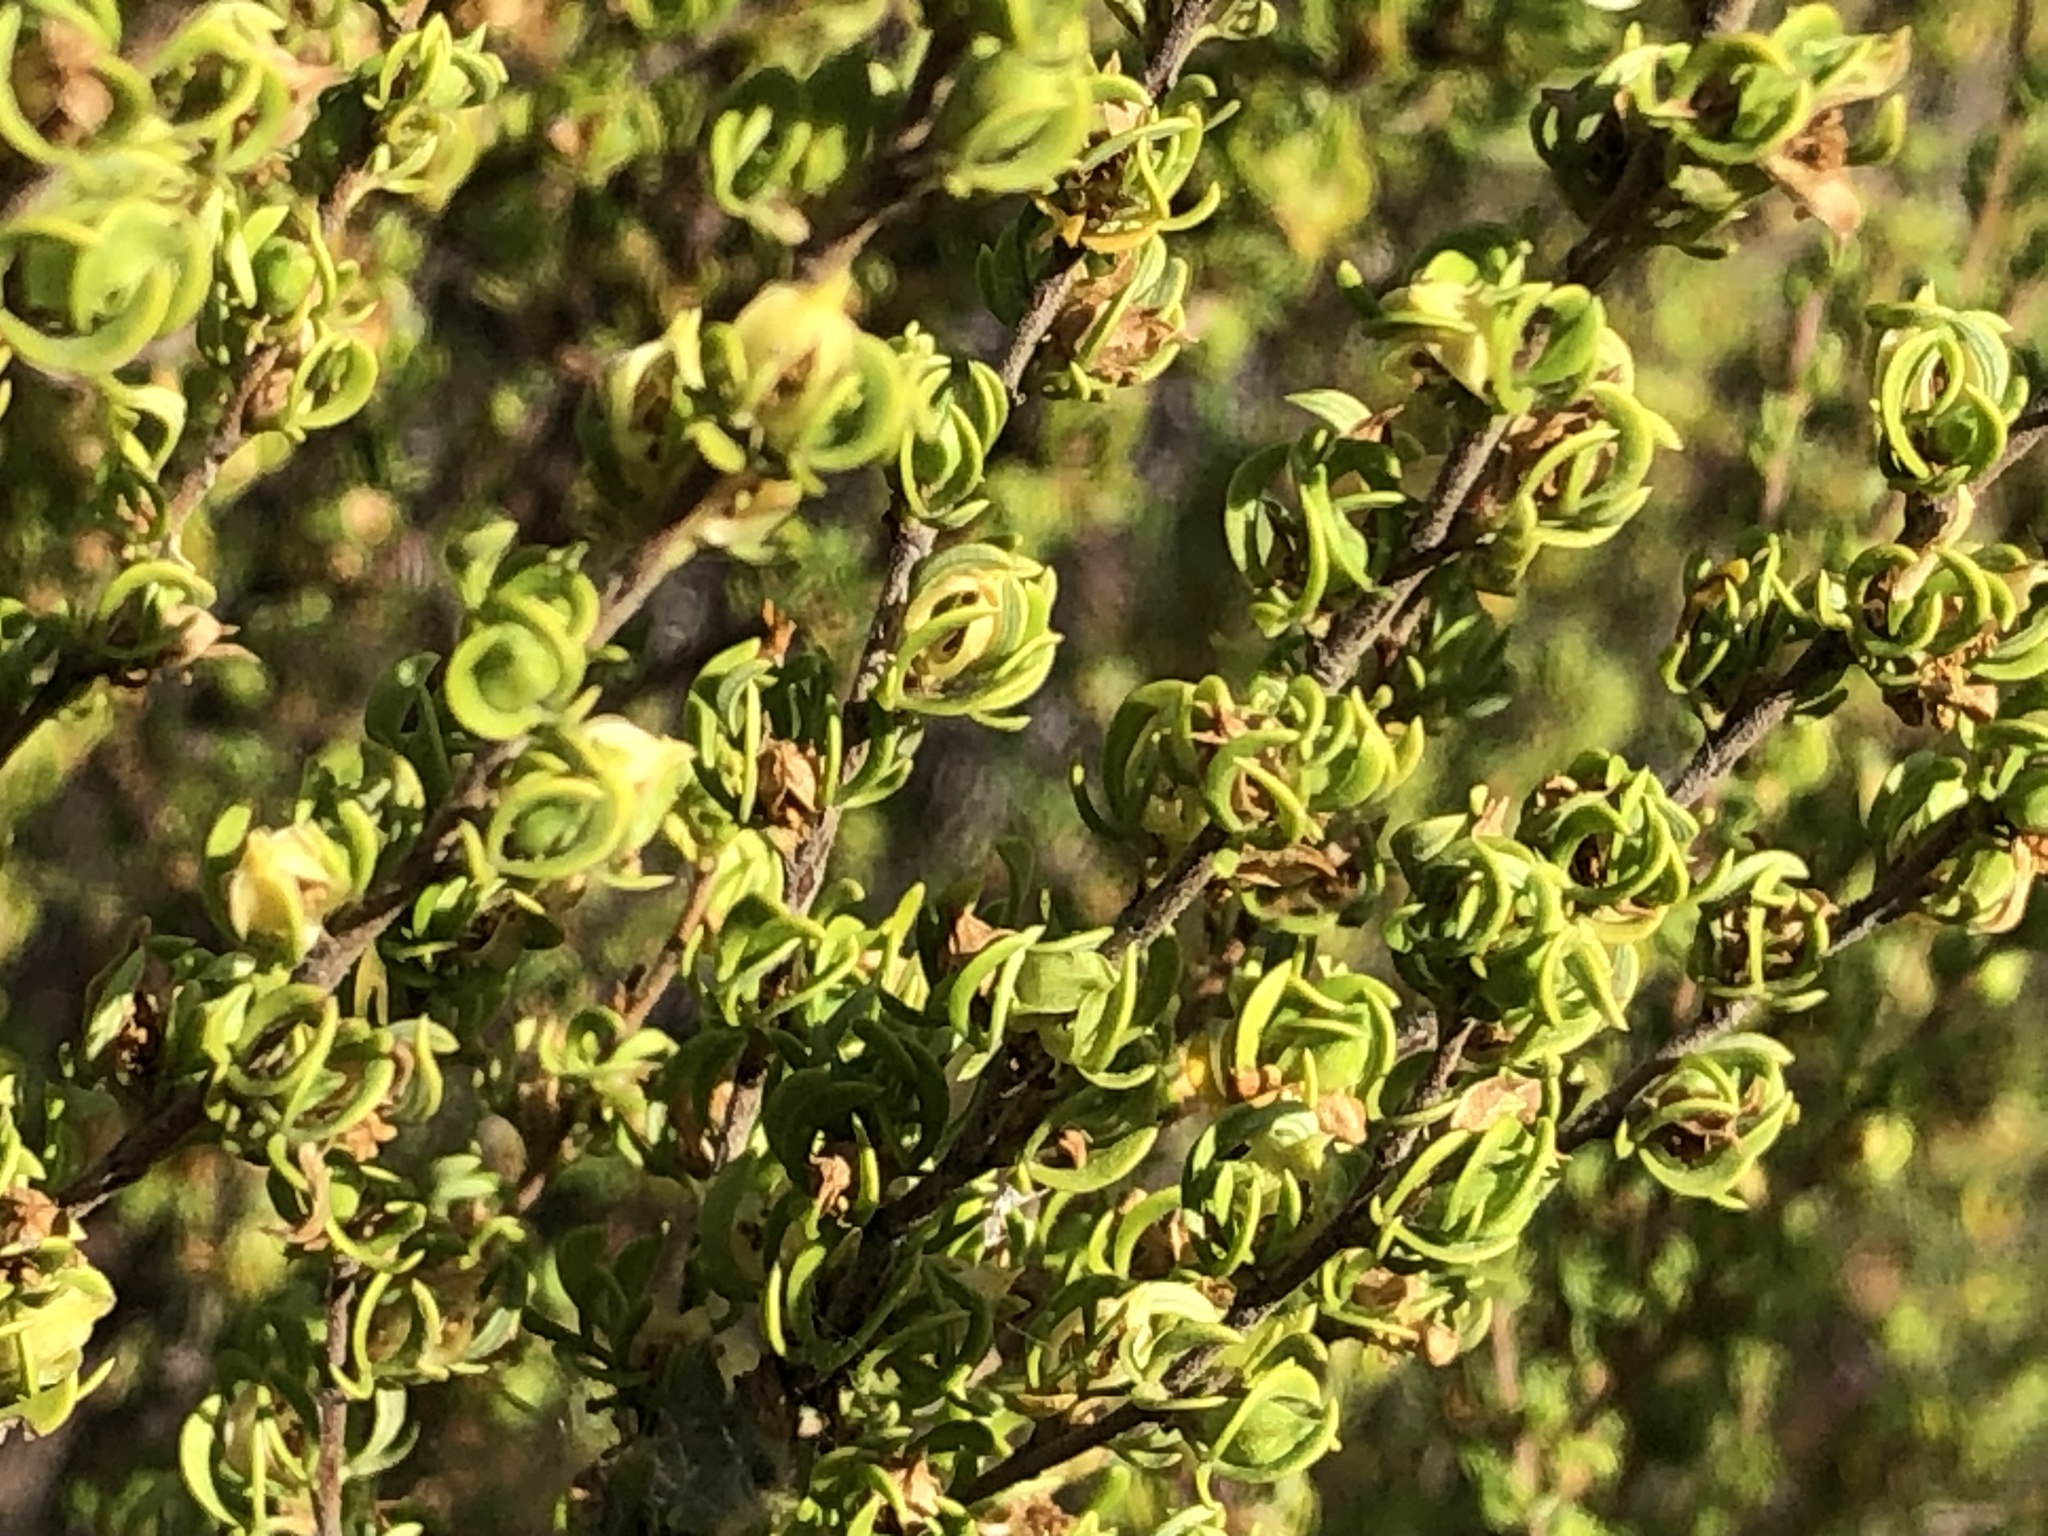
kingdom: Plantae
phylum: Tracheophyta
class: Magnoliopsida
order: Rosales
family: Rosaceae
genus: Cliffortia
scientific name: Cliffortia falcata
